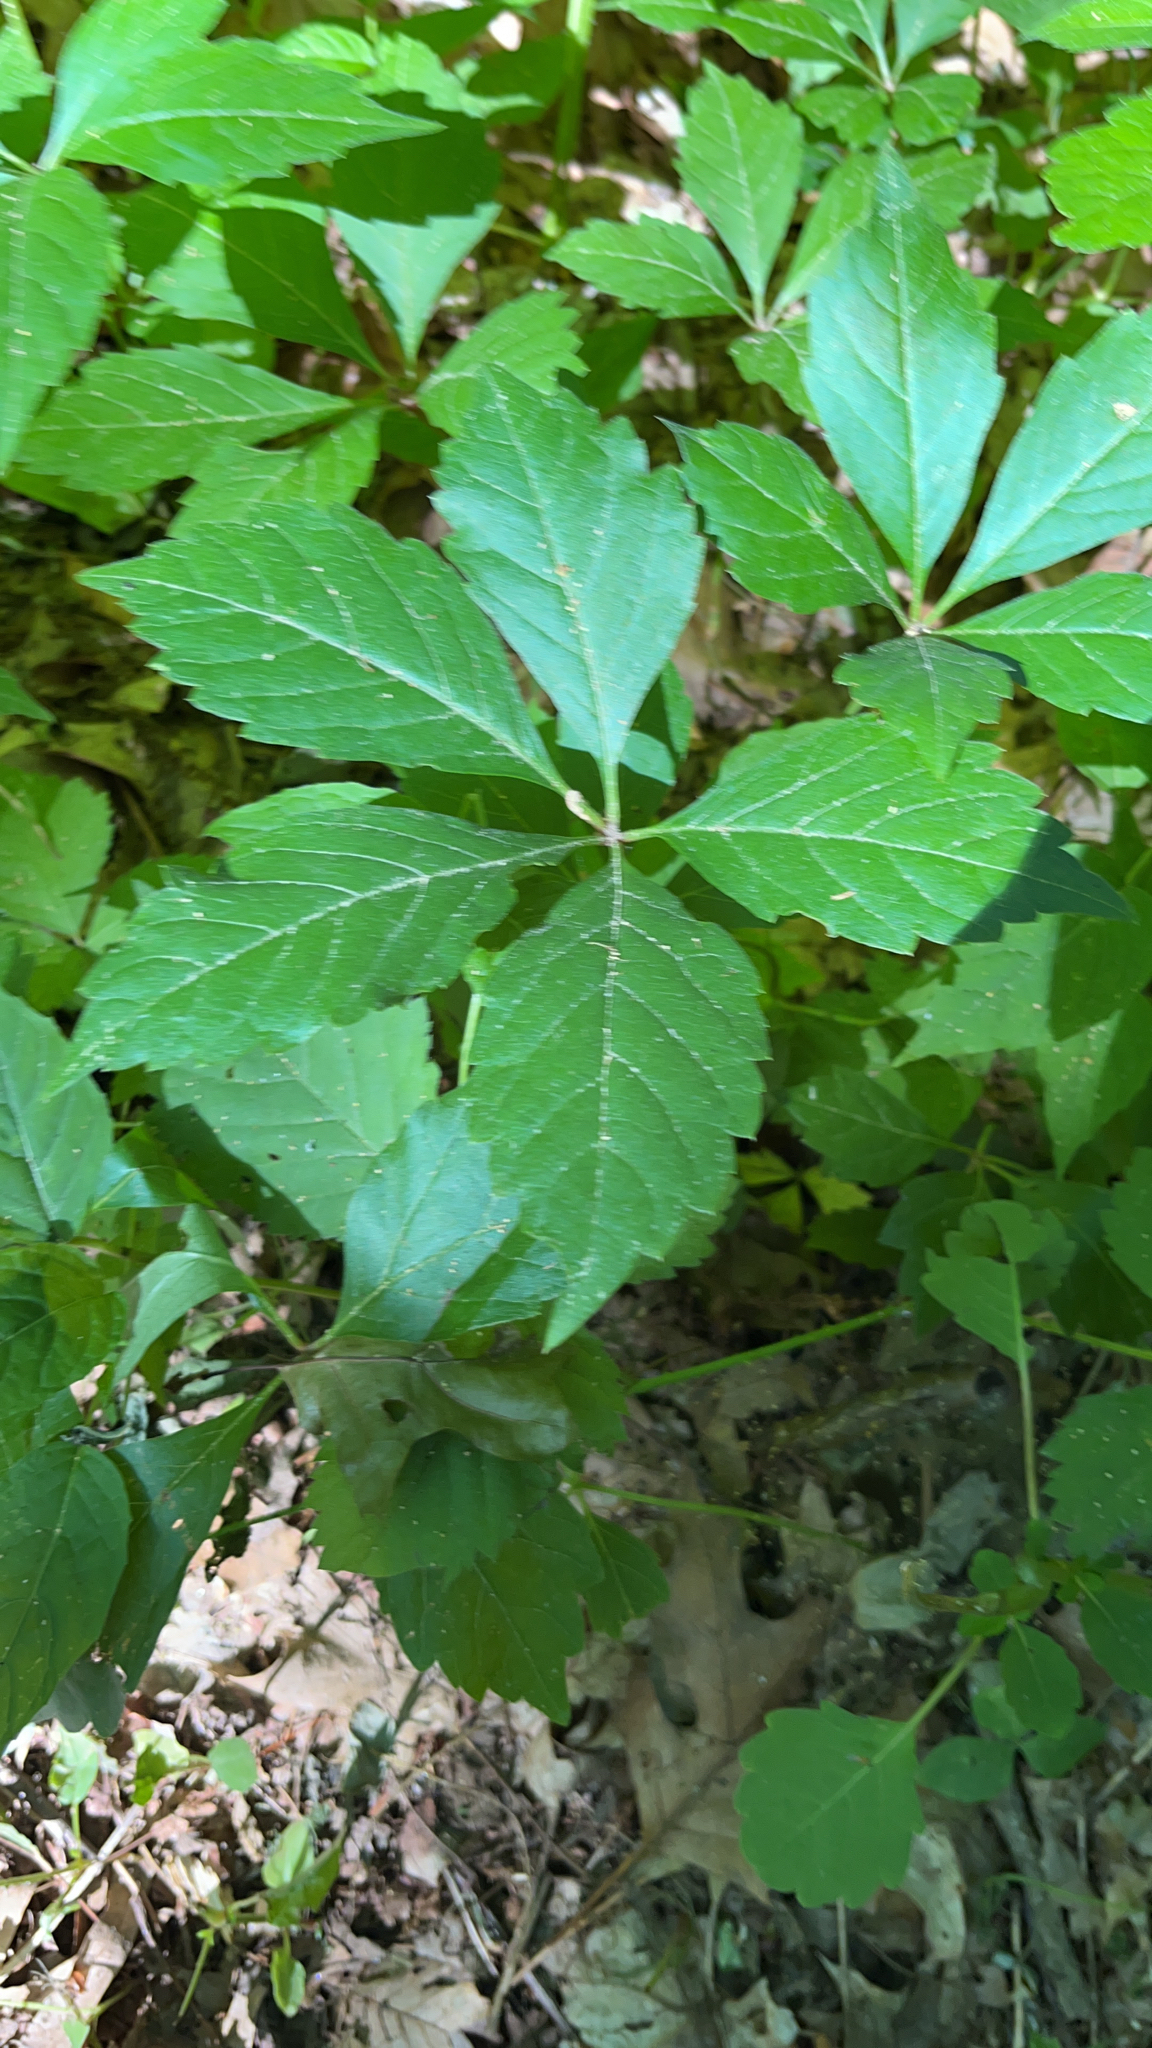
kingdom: Plantae
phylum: Tracheophyta
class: Magnoliopsida
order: Vitales
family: Vitaceae
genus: Parthenocissus
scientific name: Parthenocissus quinquefolia
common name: Virginia-creeper
